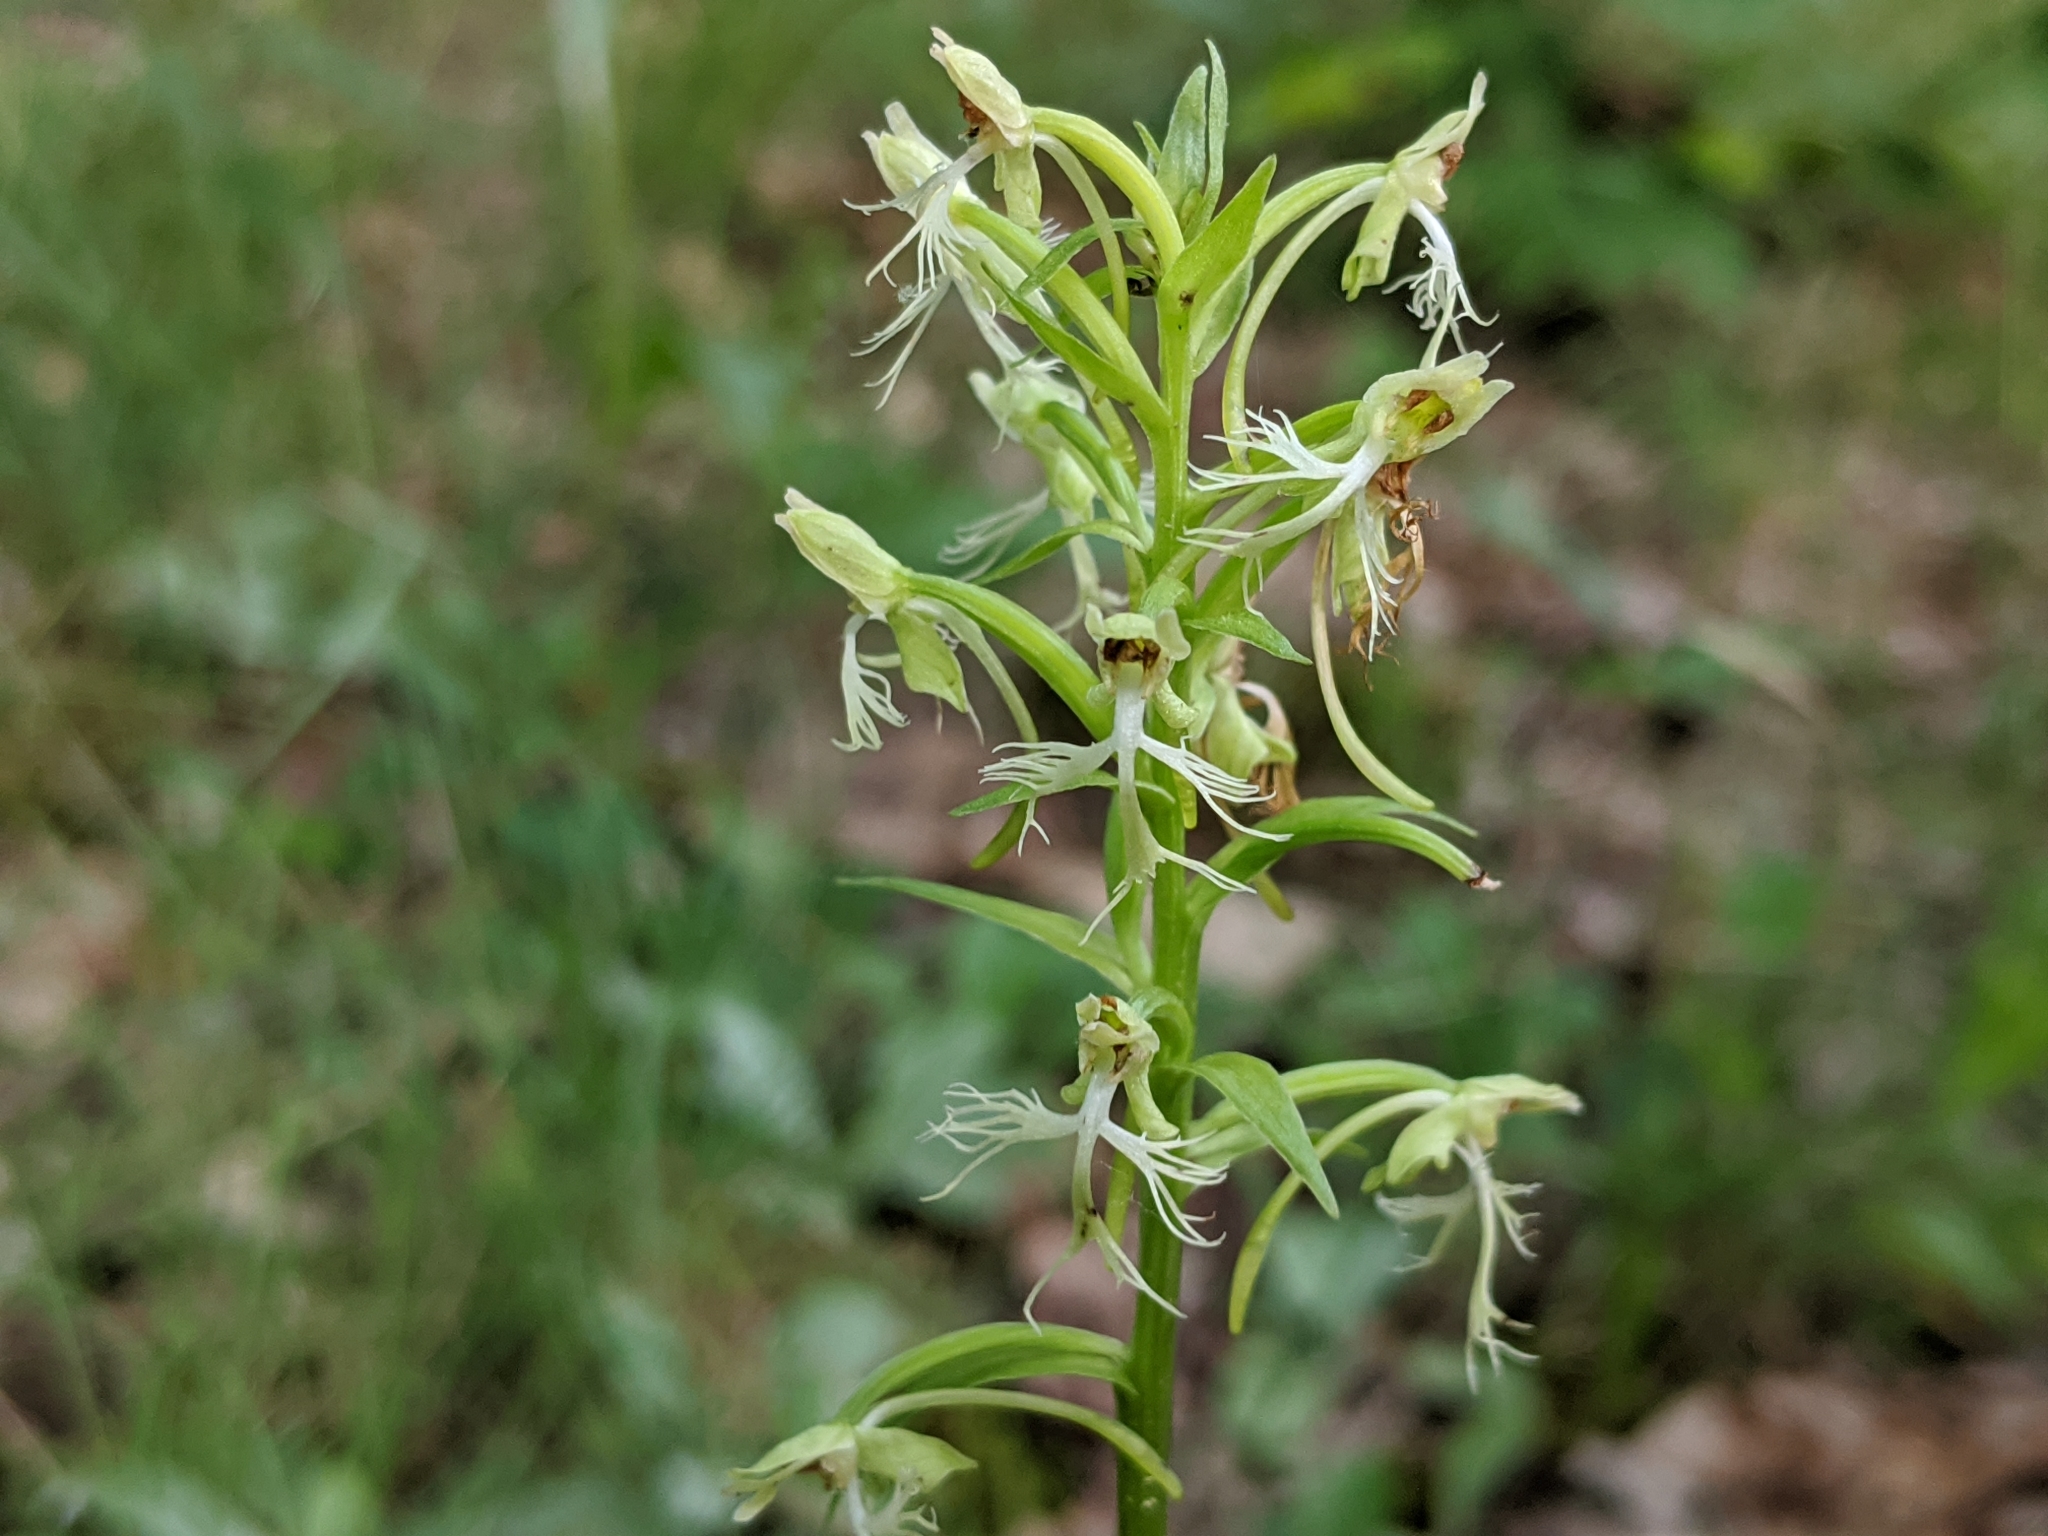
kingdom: Plantae
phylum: Tracheophyta
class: Liliopsida
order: Asparagales
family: Orchidaceae
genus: Platanthera
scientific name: Platanthera lacera
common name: Green fringed orchid
